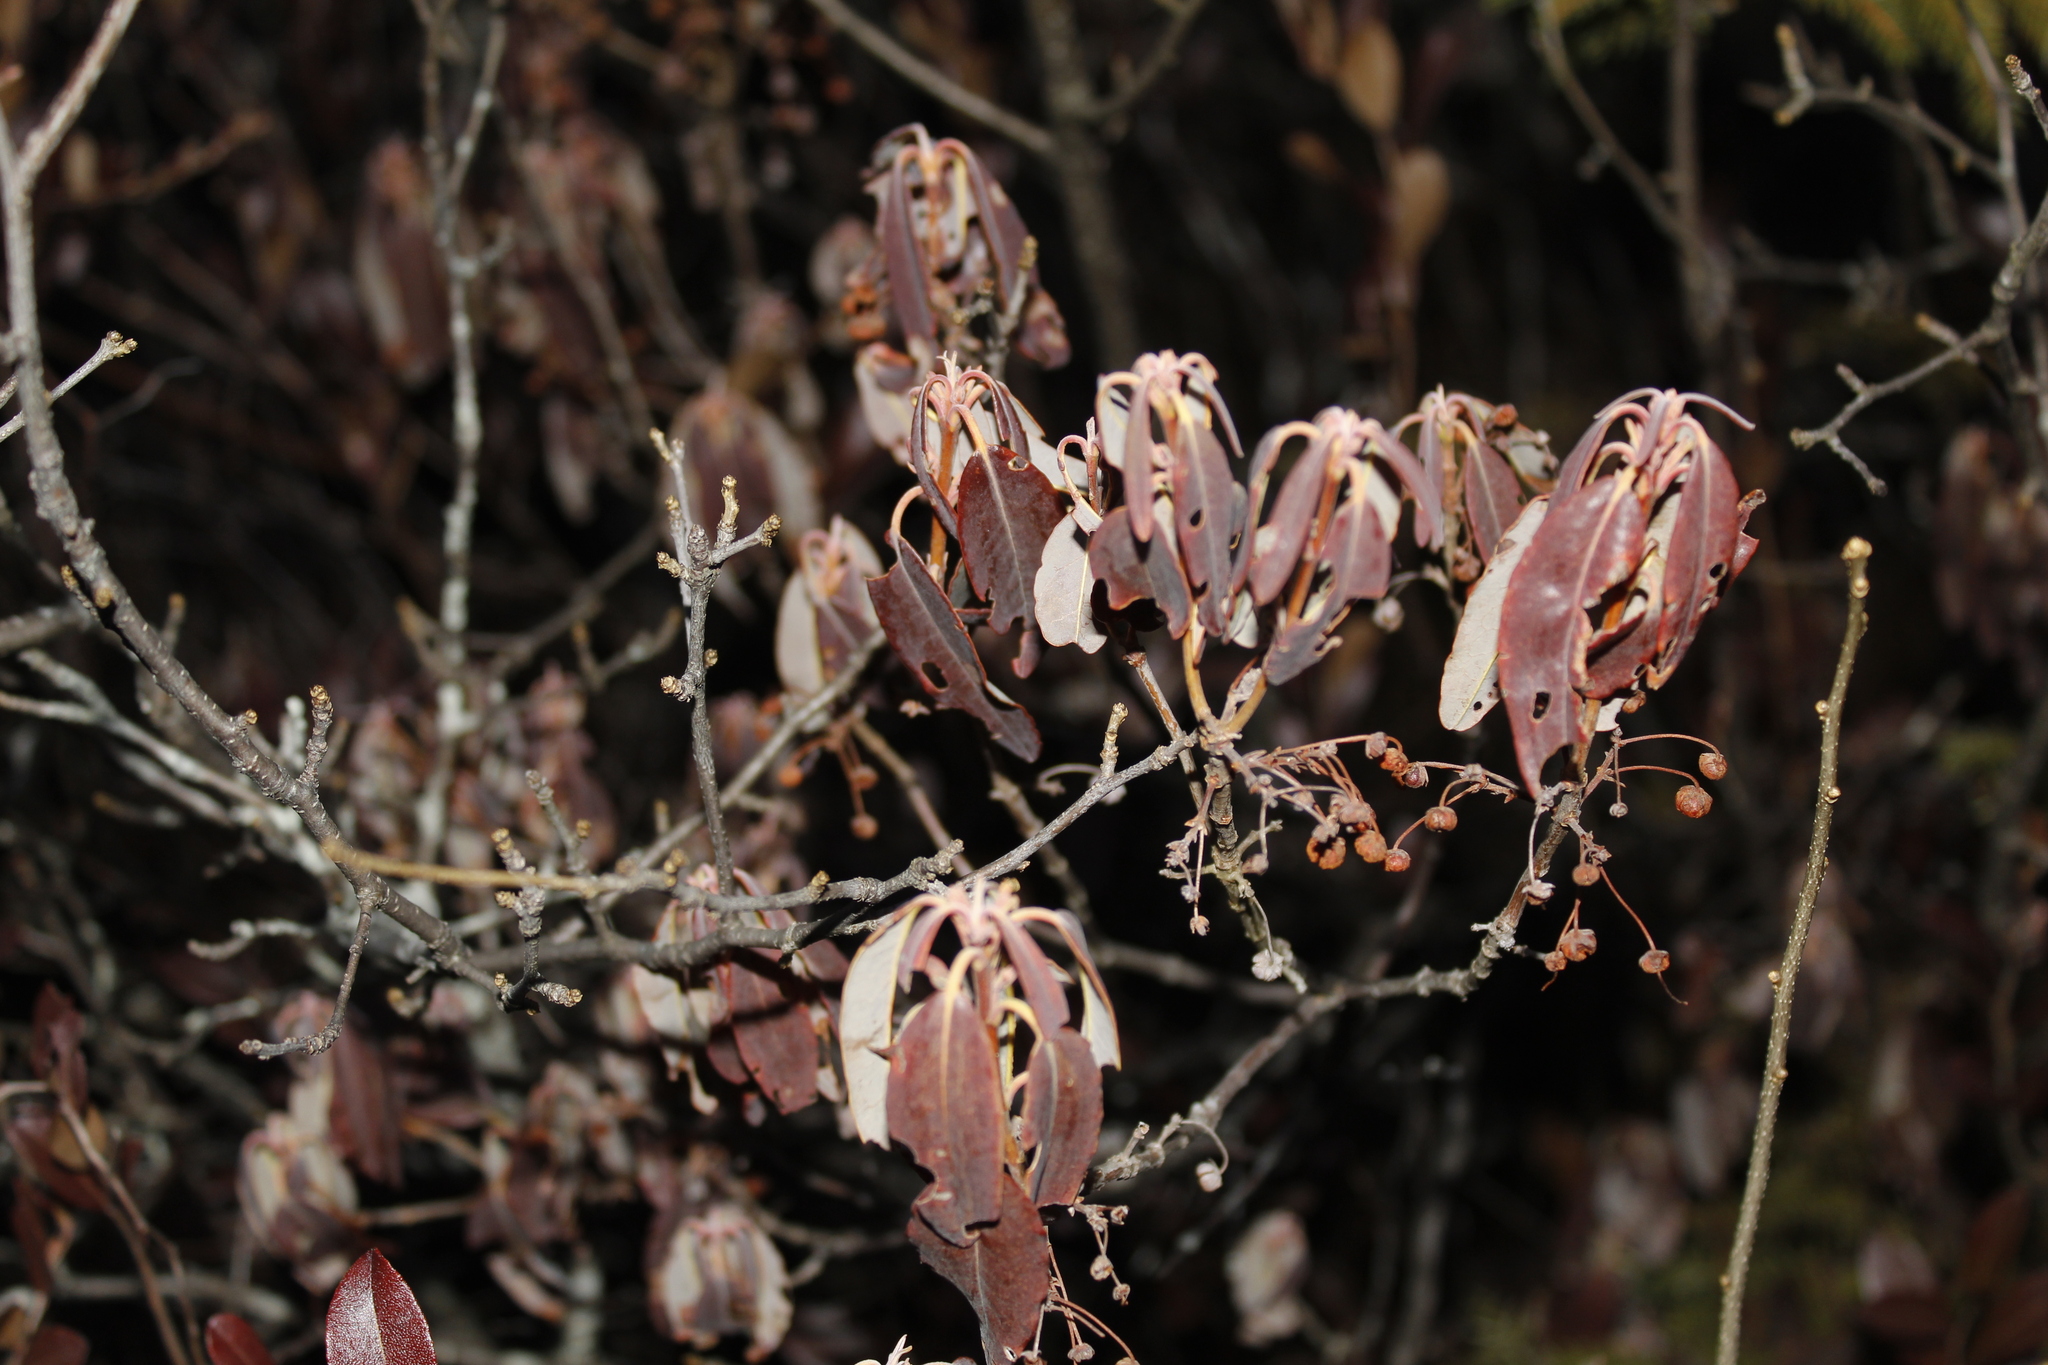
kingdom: Plantae
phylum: Tracheophyta
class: Magnoliopsida
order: Ericales
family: Ericaceae
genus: Kalmia
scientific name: Kalmia angustifolia
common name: Sheep-laurel
